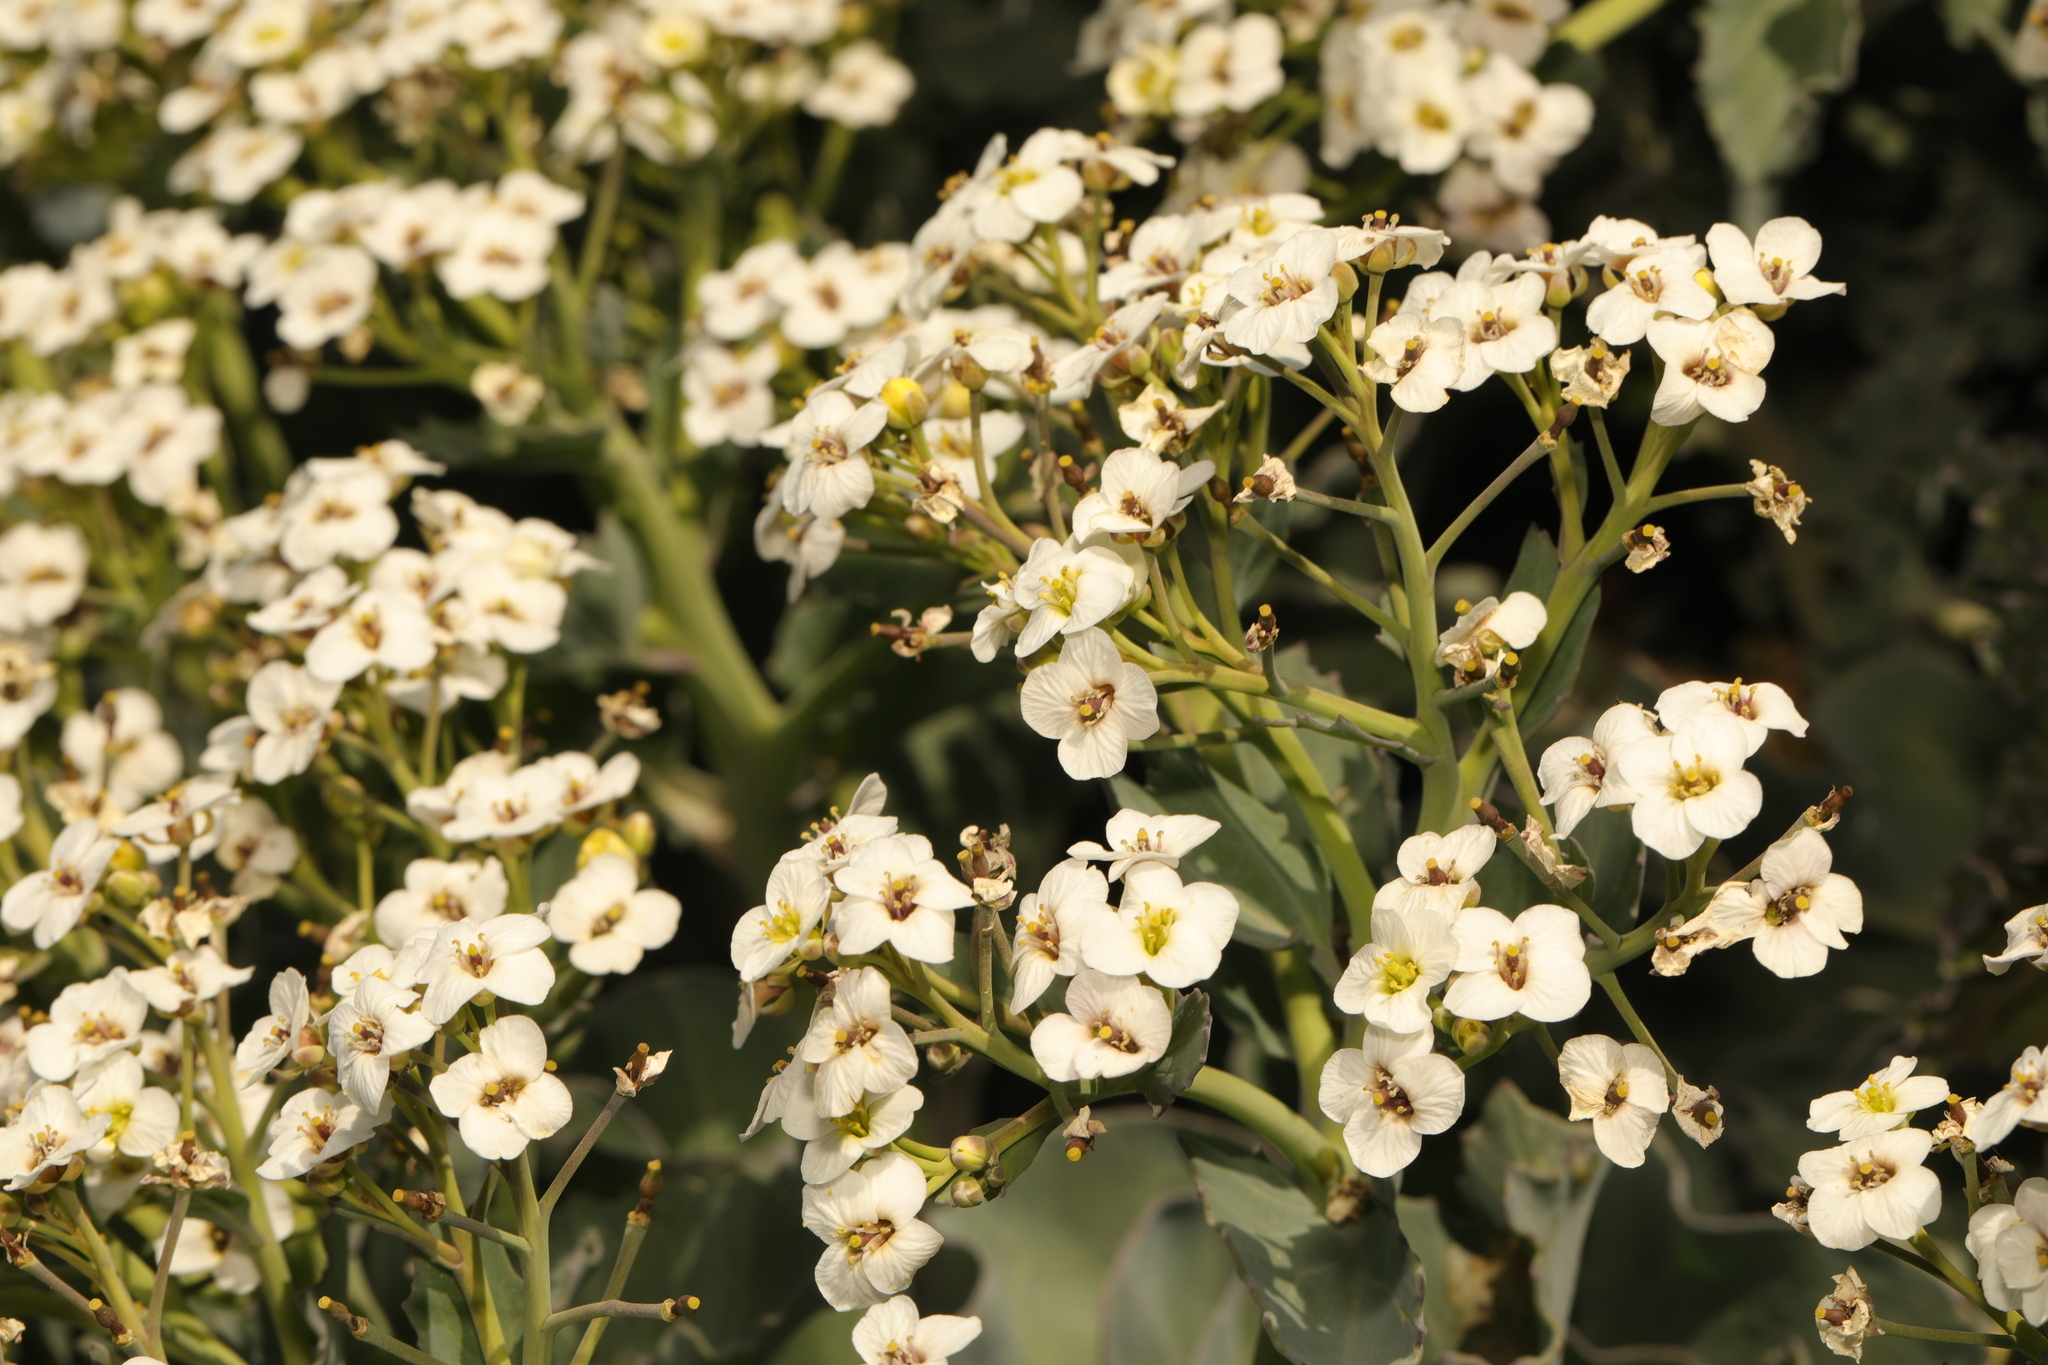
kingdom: Plantae
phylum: Tracheophyta
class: Magnoliopsida
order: Brassicales
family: Brassicaceae
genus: Crambe
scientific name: Crambe maritima
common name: Sea-kale
